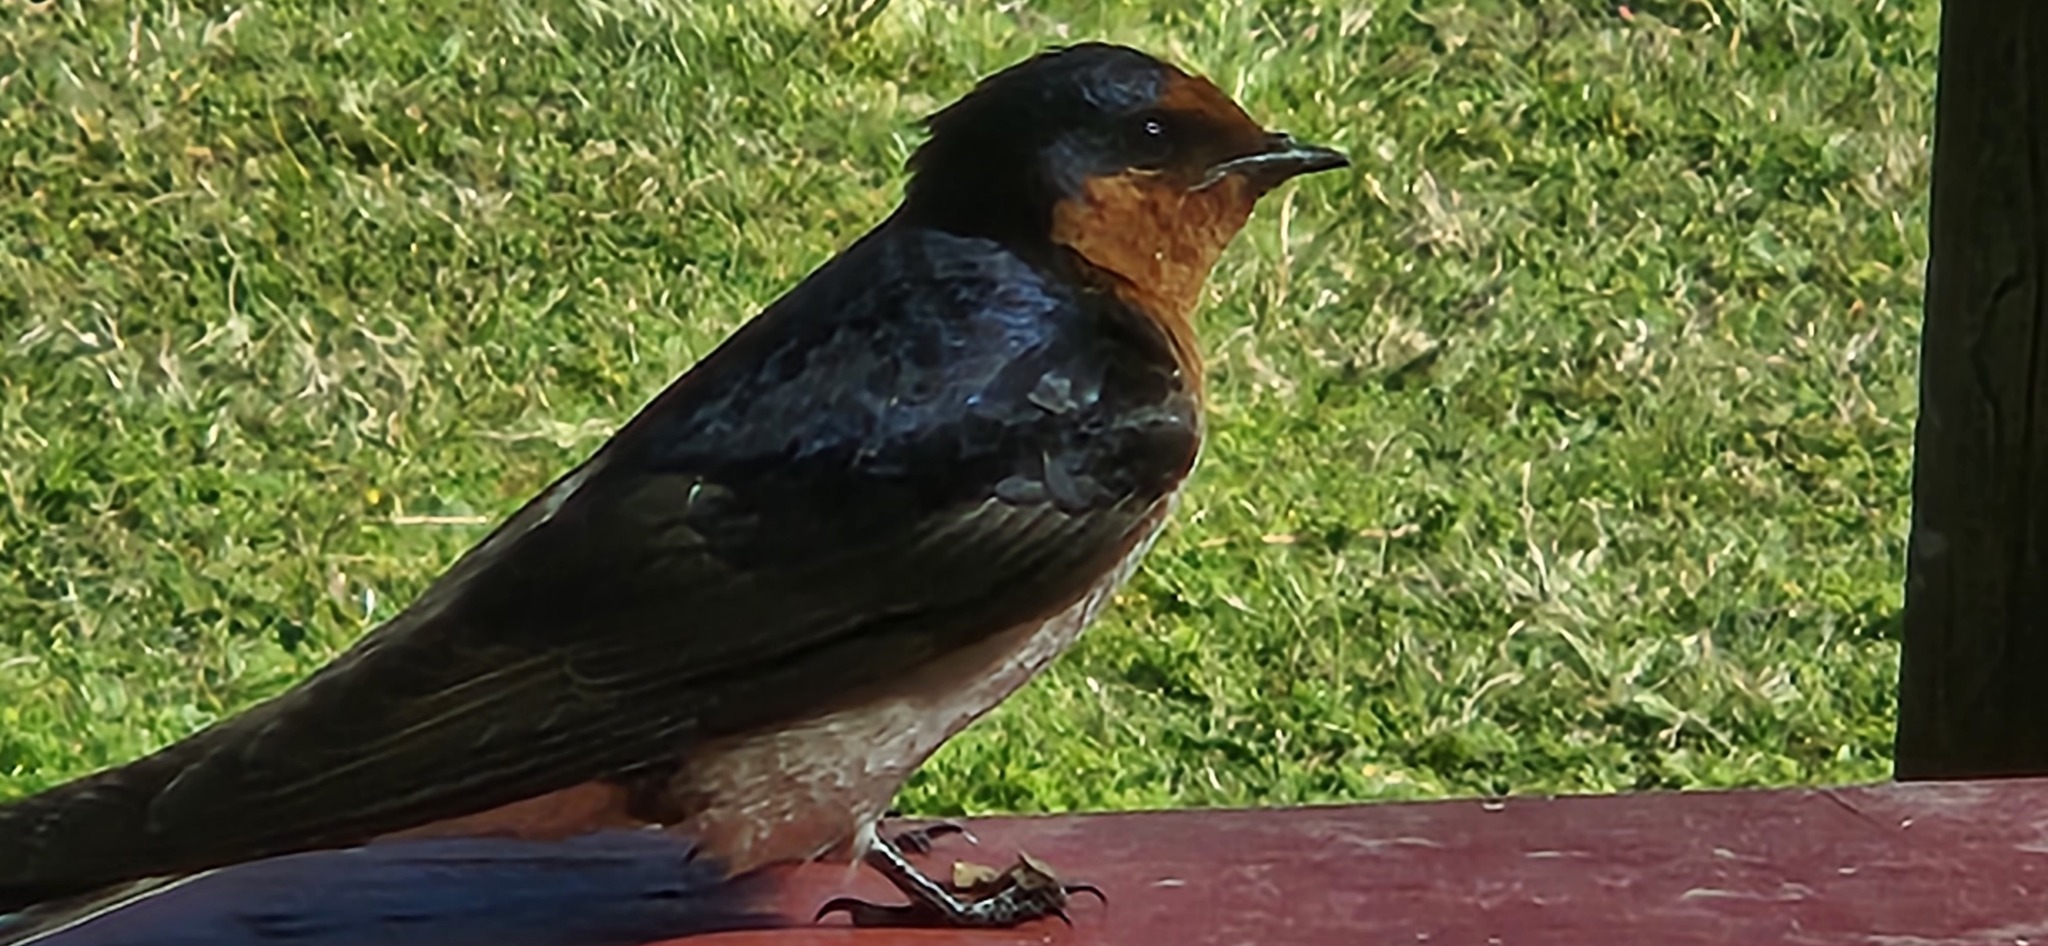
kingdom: Animalia
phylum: Chordata
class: Aves
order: Passeriformes
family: Hirundinidae
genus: Hirundo
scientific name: Hirundo neoxena
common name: Welcome swallow
